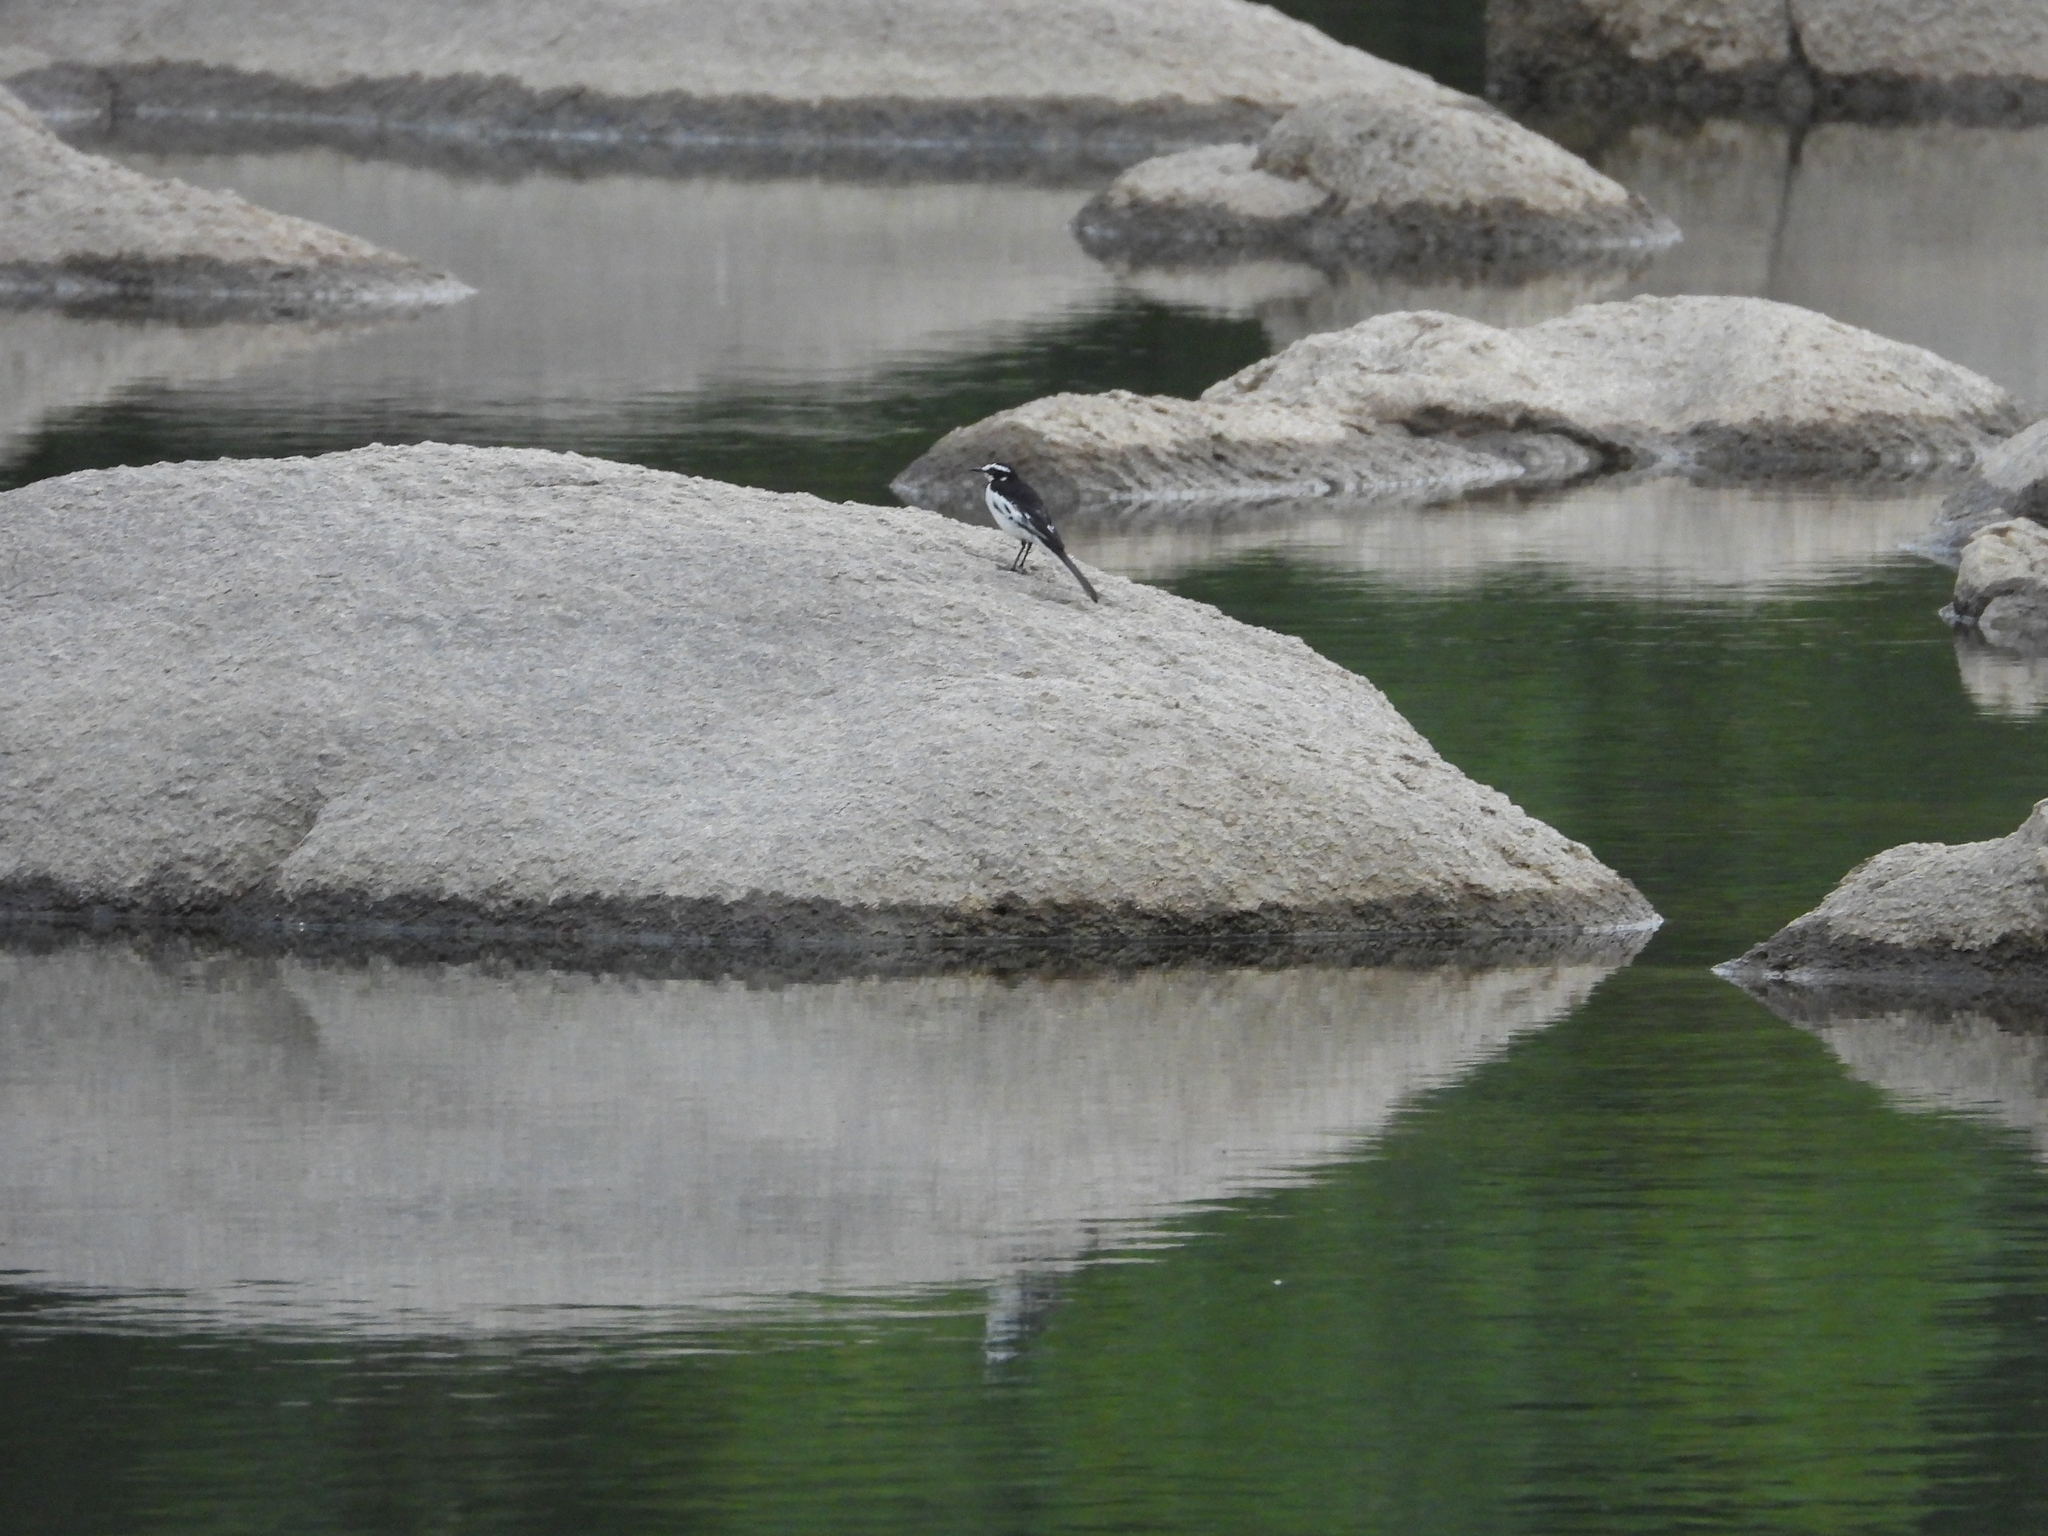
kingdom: Animalia
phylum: Chordata
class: Aves
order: Passeriformes
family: Motacillidae
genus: Motacilla
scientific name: Motacilla aguimp
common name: African pied wagtail
